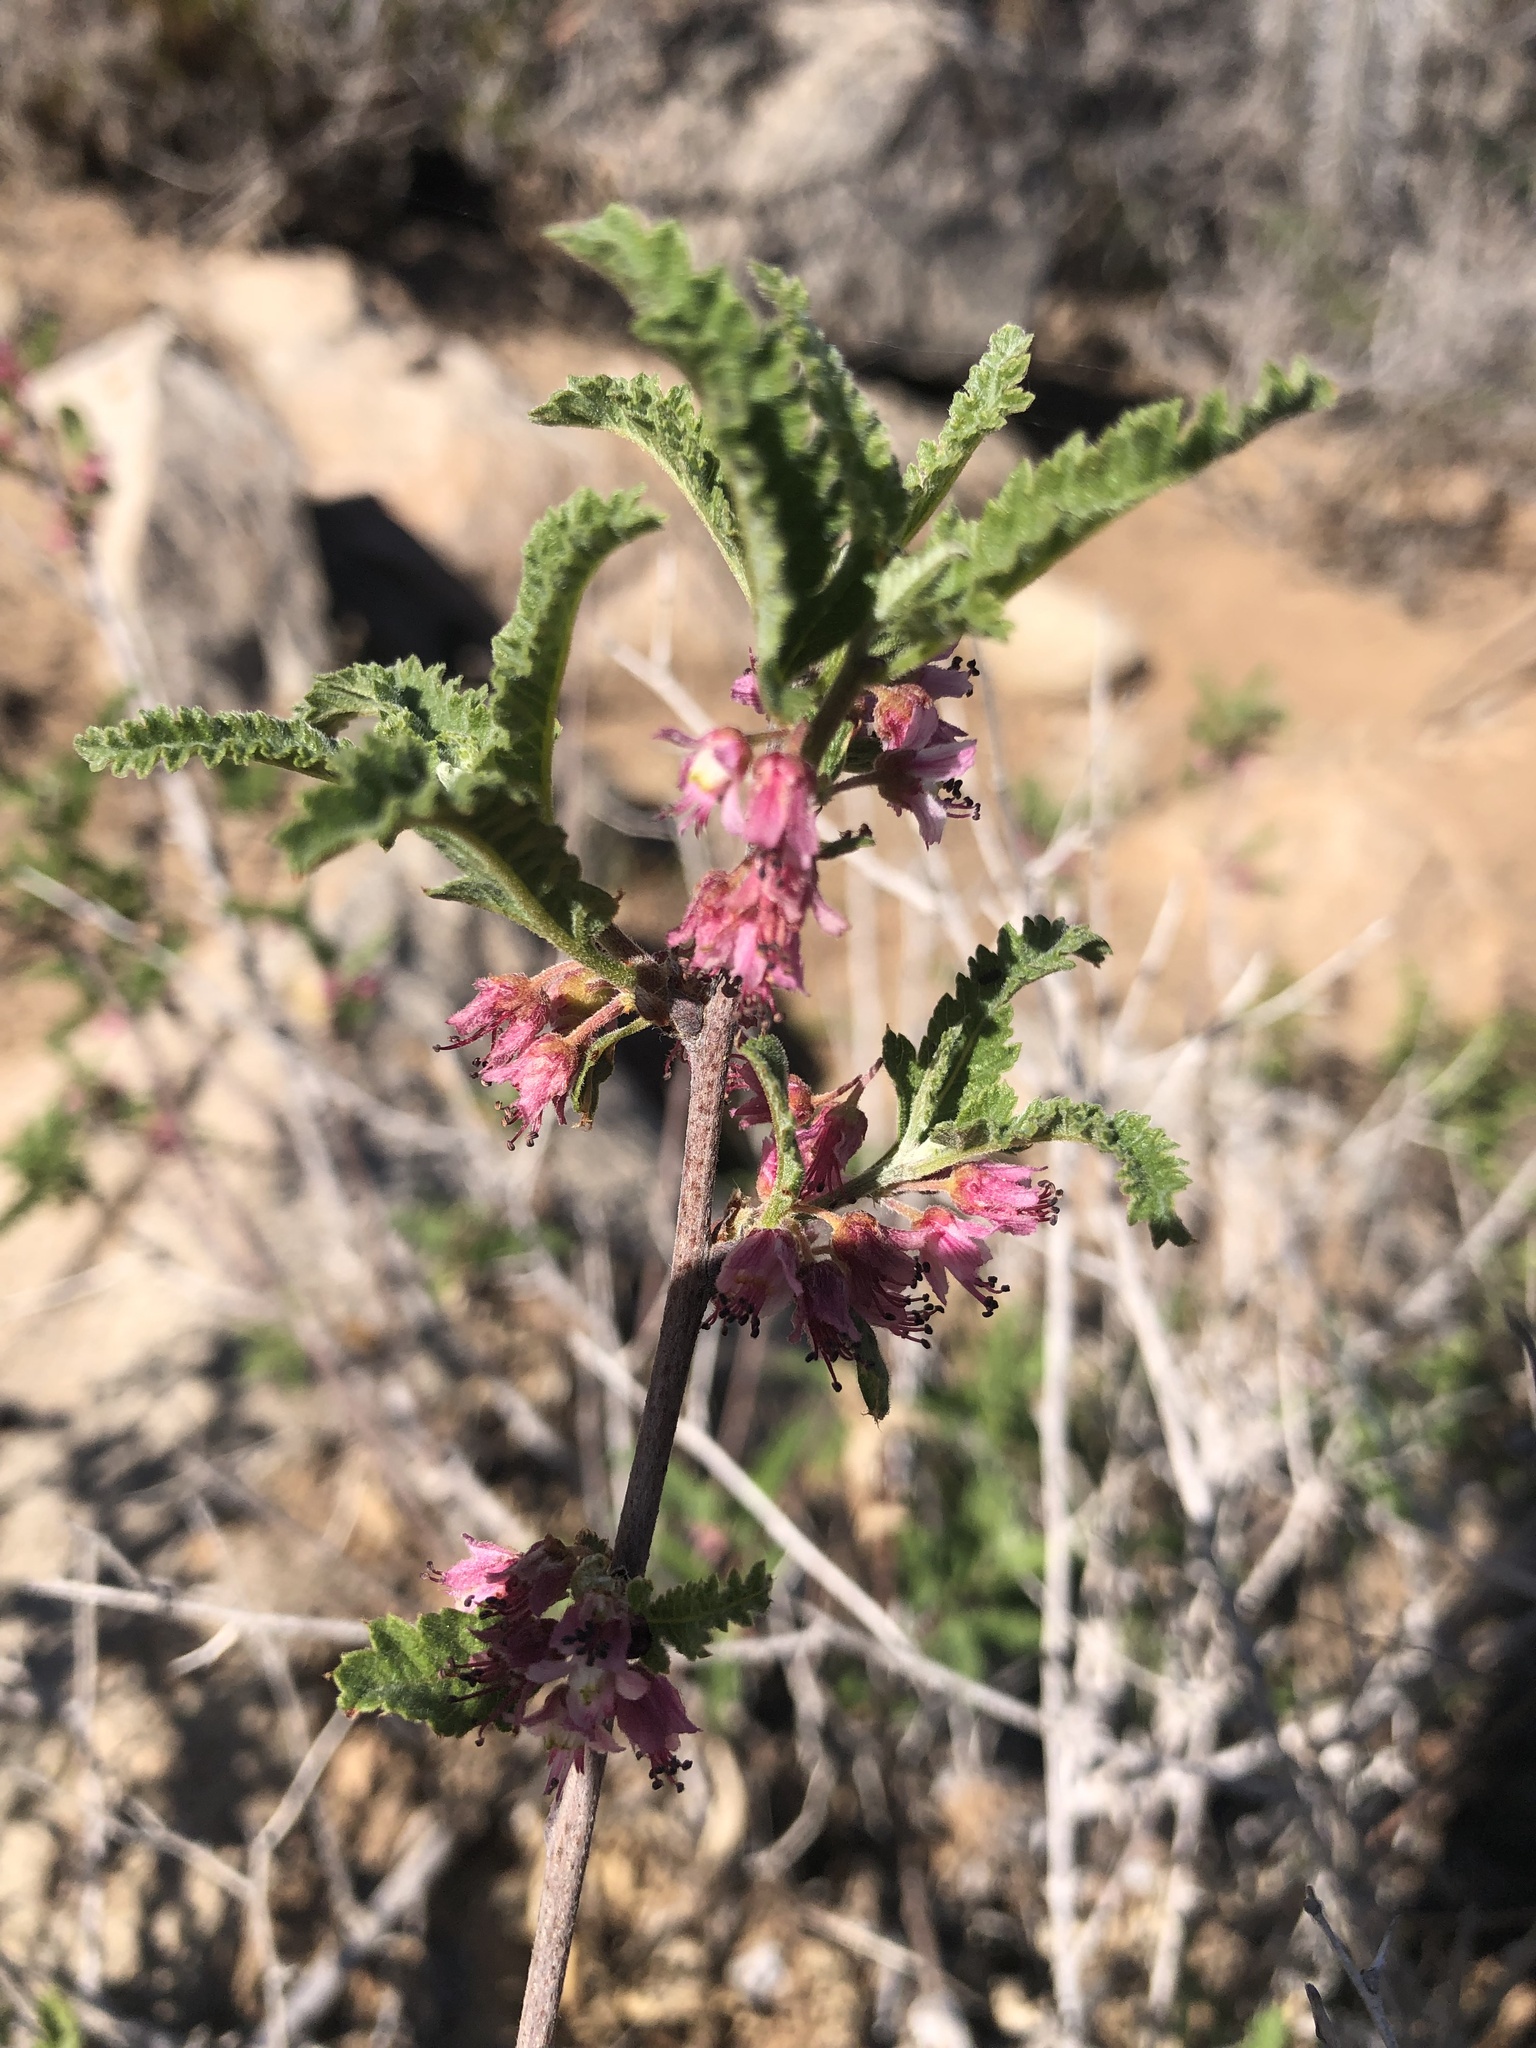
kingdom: Plantae
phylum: Tracheophyta
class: Magnoliopsida
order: Sapindales
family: Sapindaceae
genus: Bridgesia
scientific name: Bridgesia incisifolia
